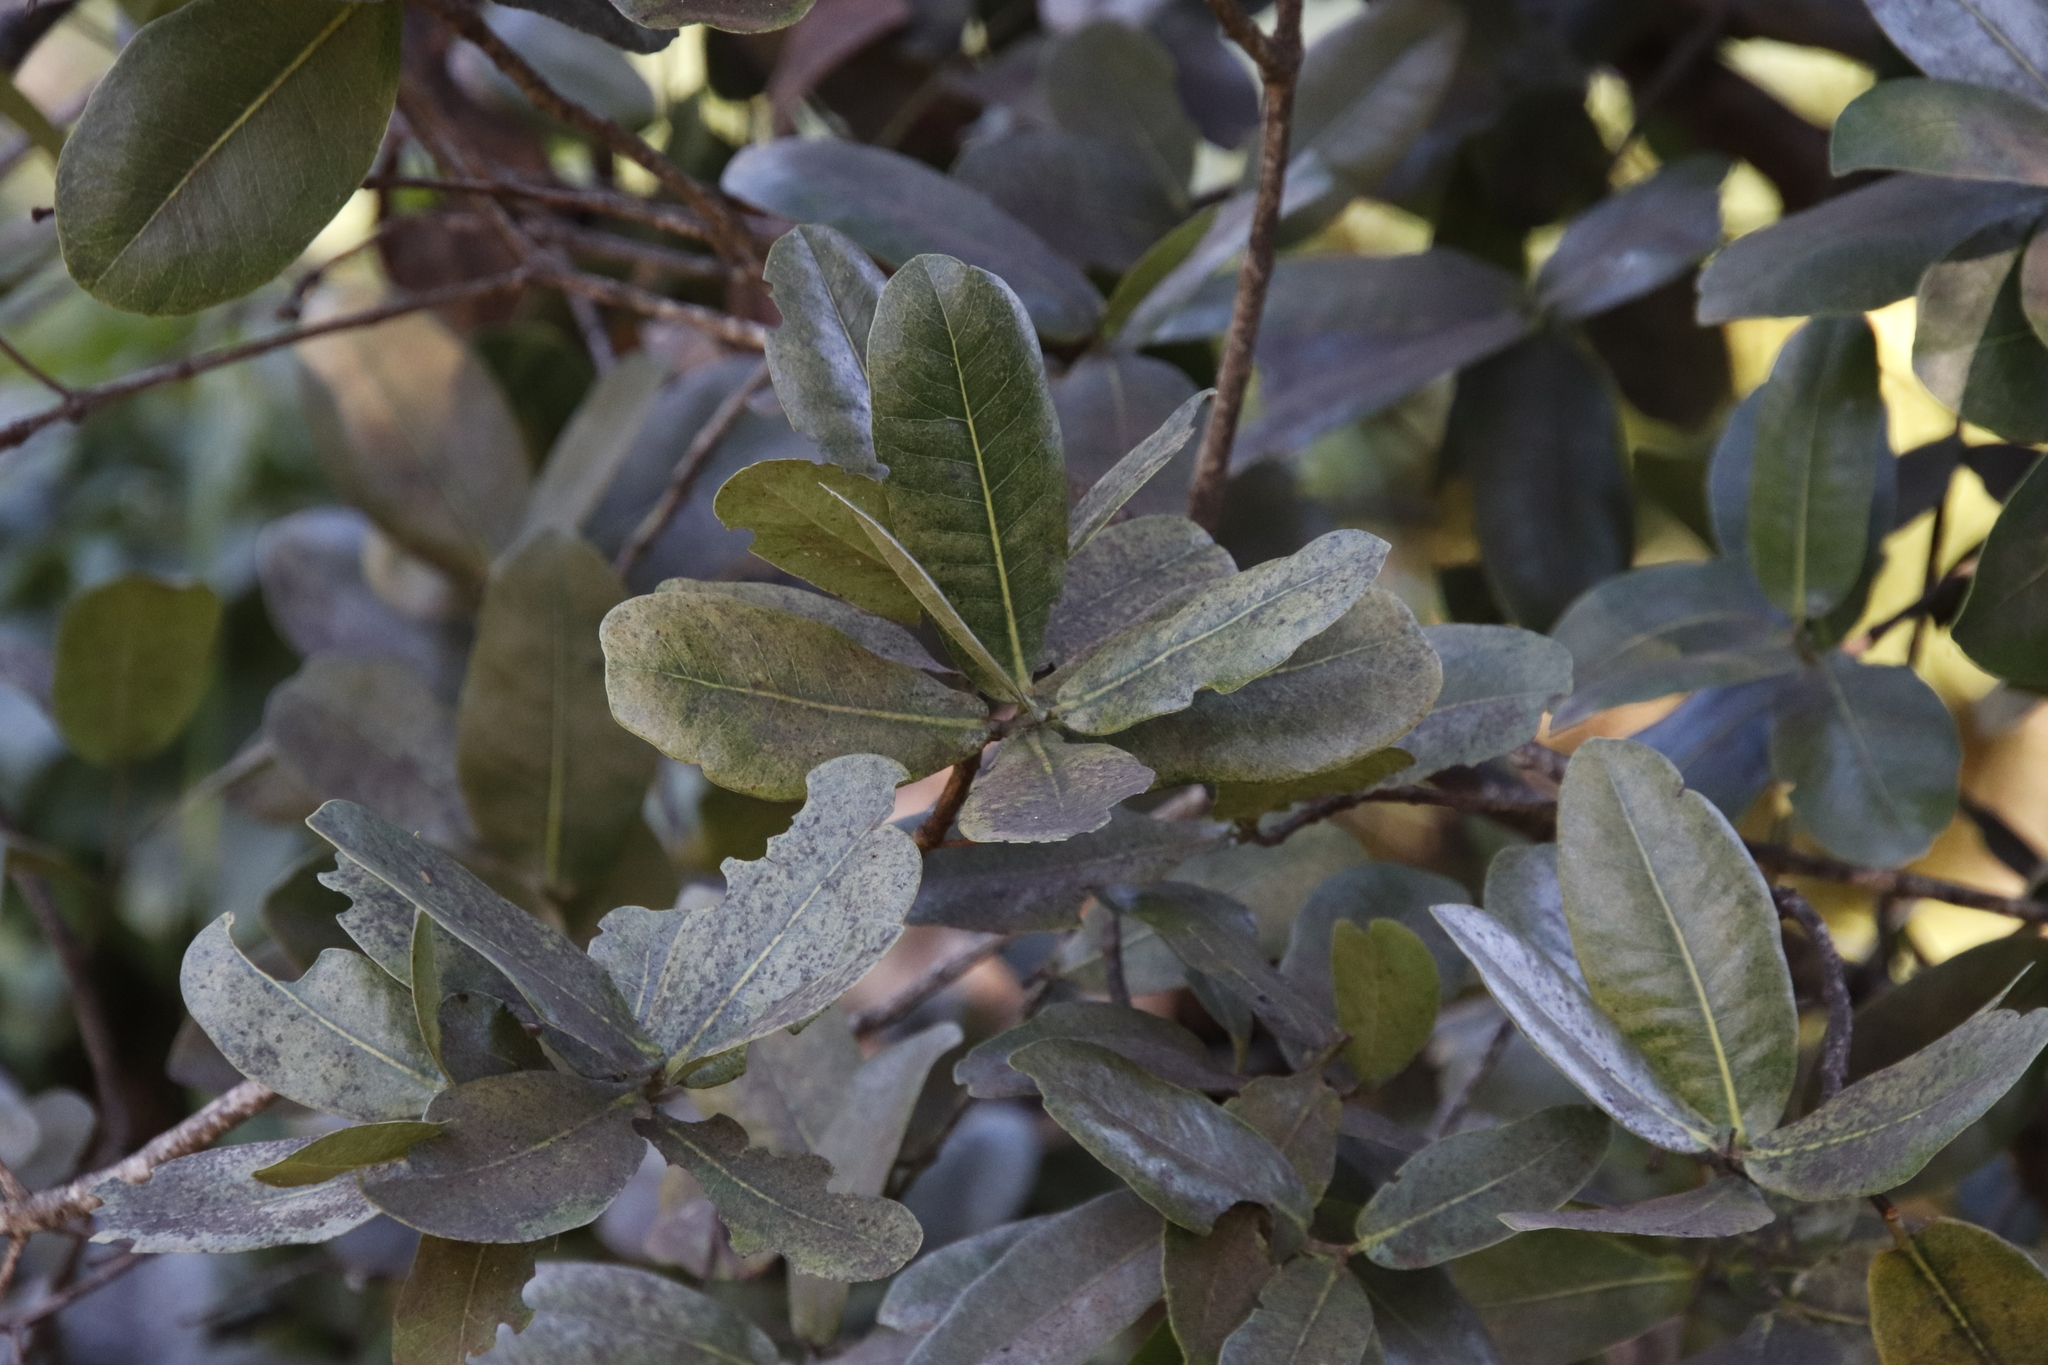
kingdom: Plantae
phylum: Tracheophyta
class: Magnoliopsida
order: Myrtales
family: Myrtaceae
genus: Syzygium
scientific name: Syzygium cordatum
